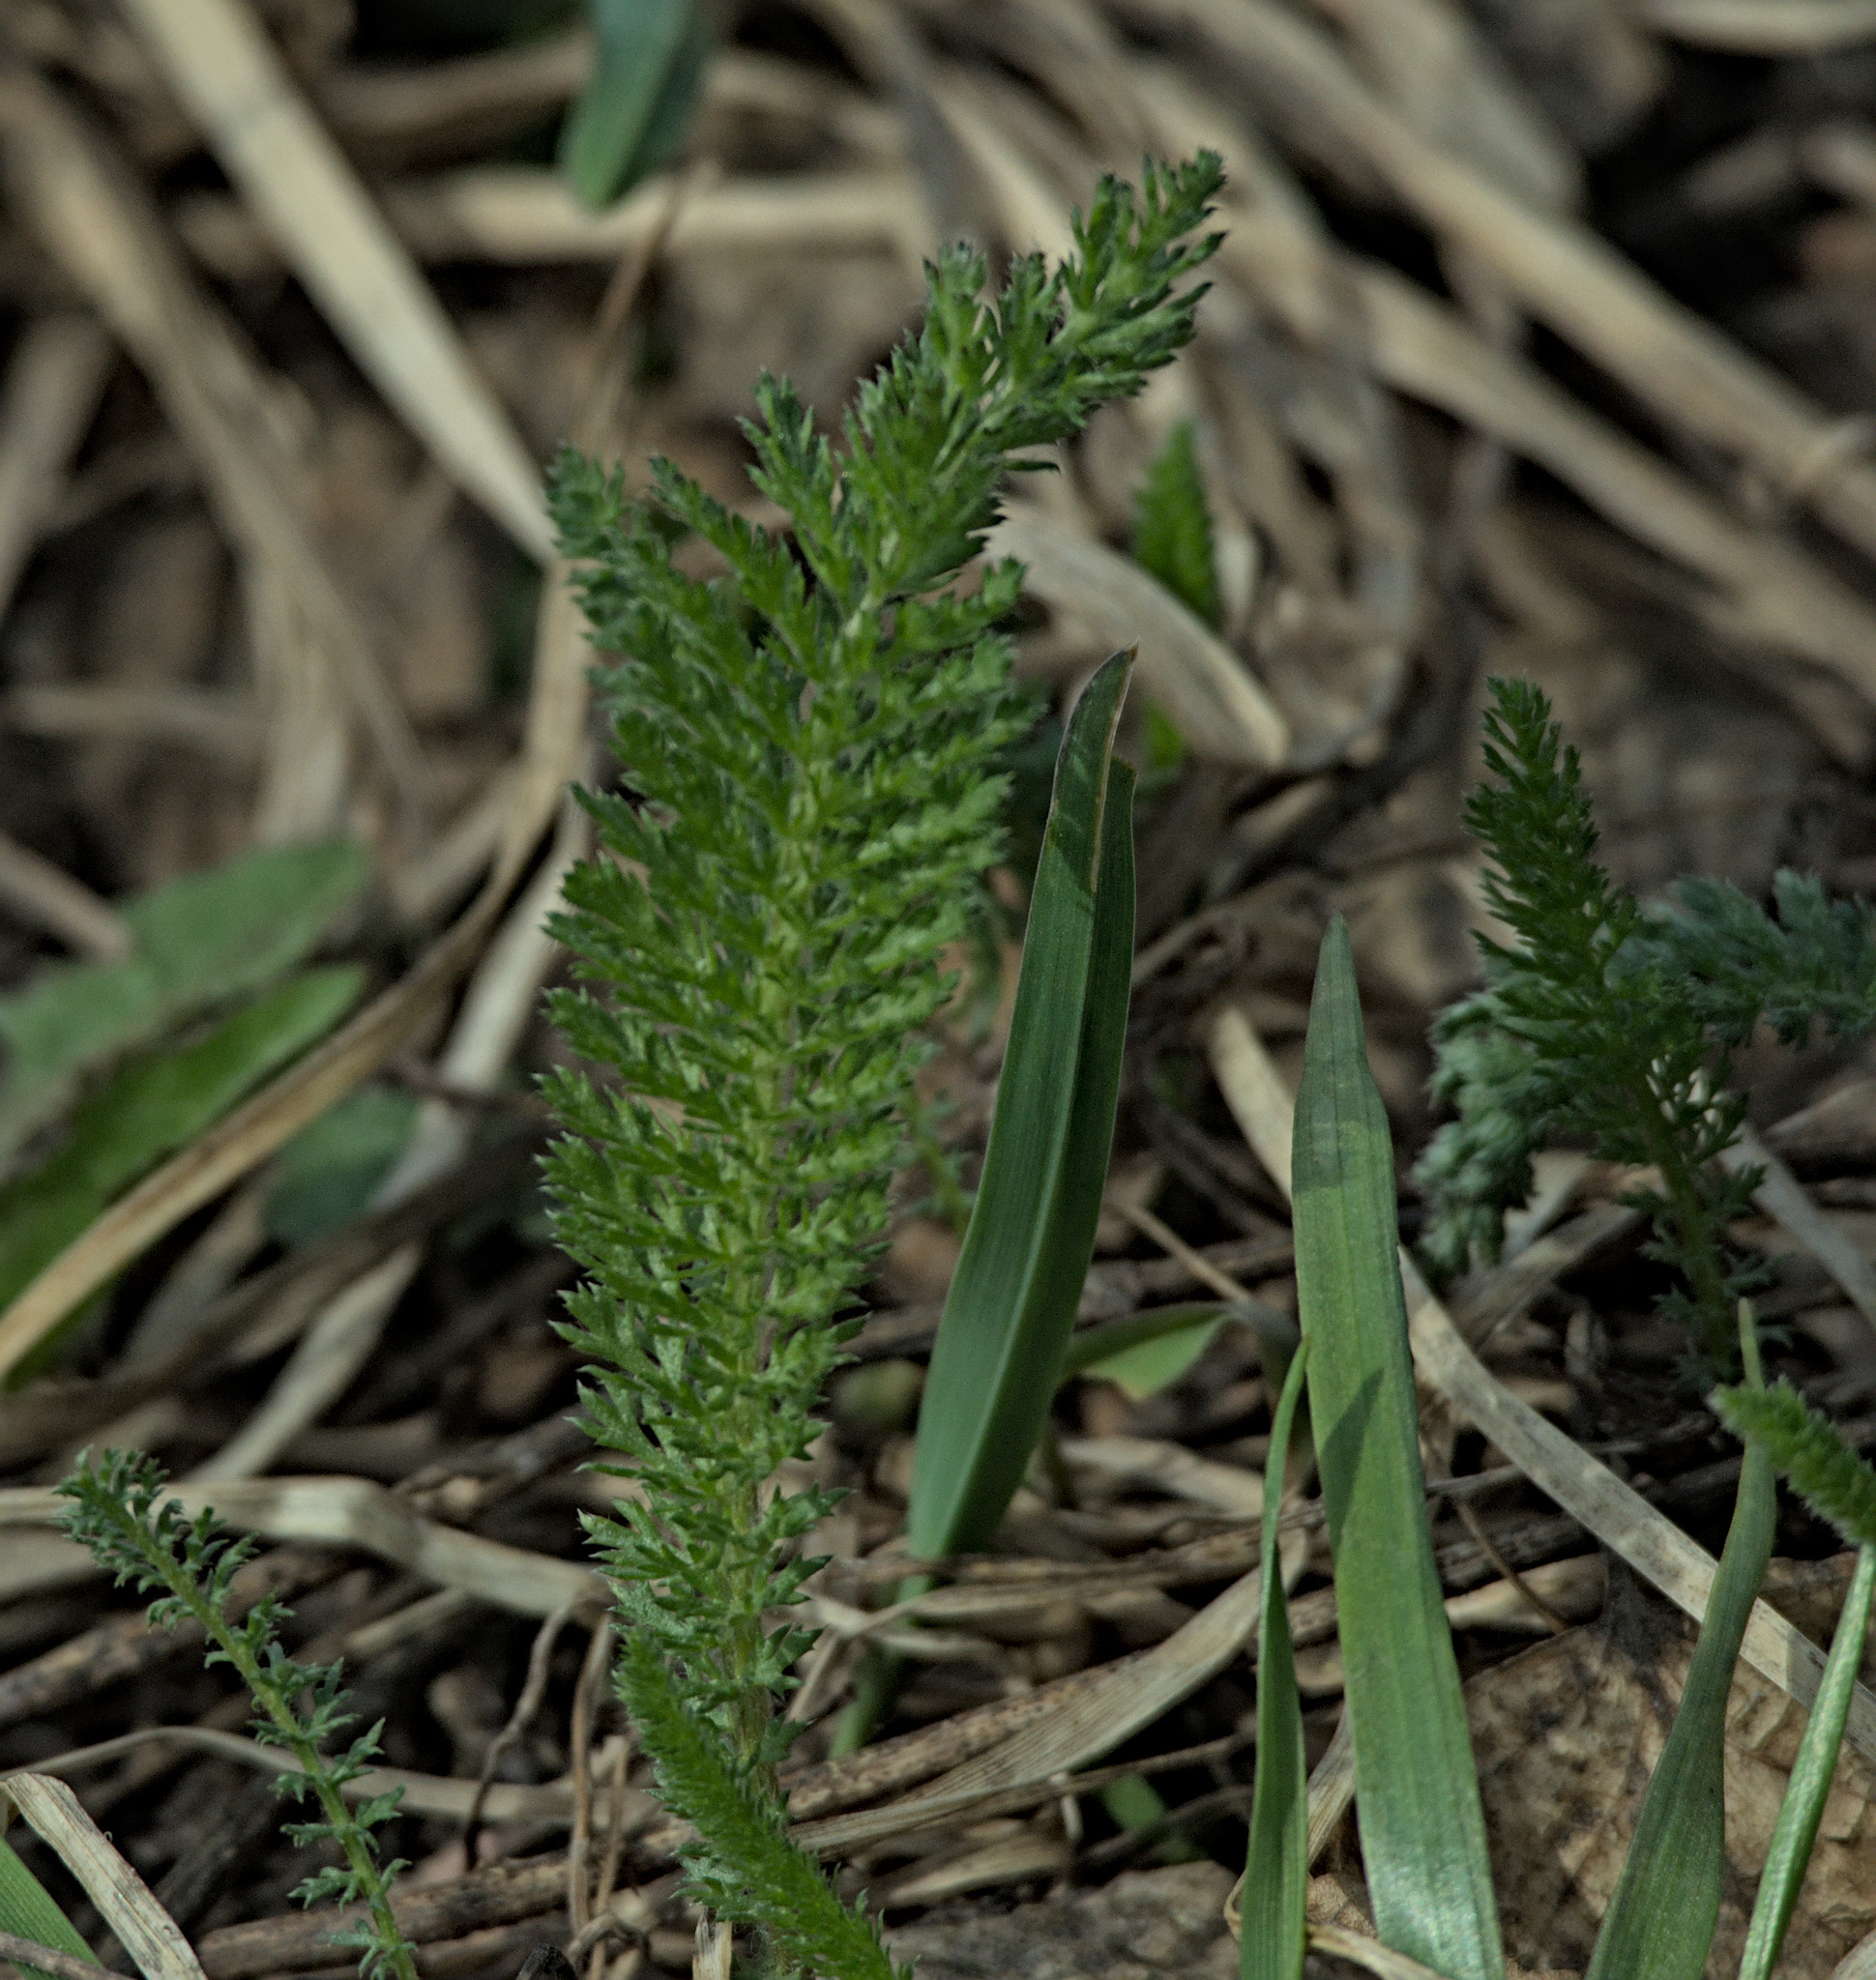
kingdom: Plantae
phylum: Tracheophyta
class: Magnoliopsida
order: Asterales
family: Asteraceae
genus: Achillea
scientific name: Achillea millefolium
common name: Yarrow
